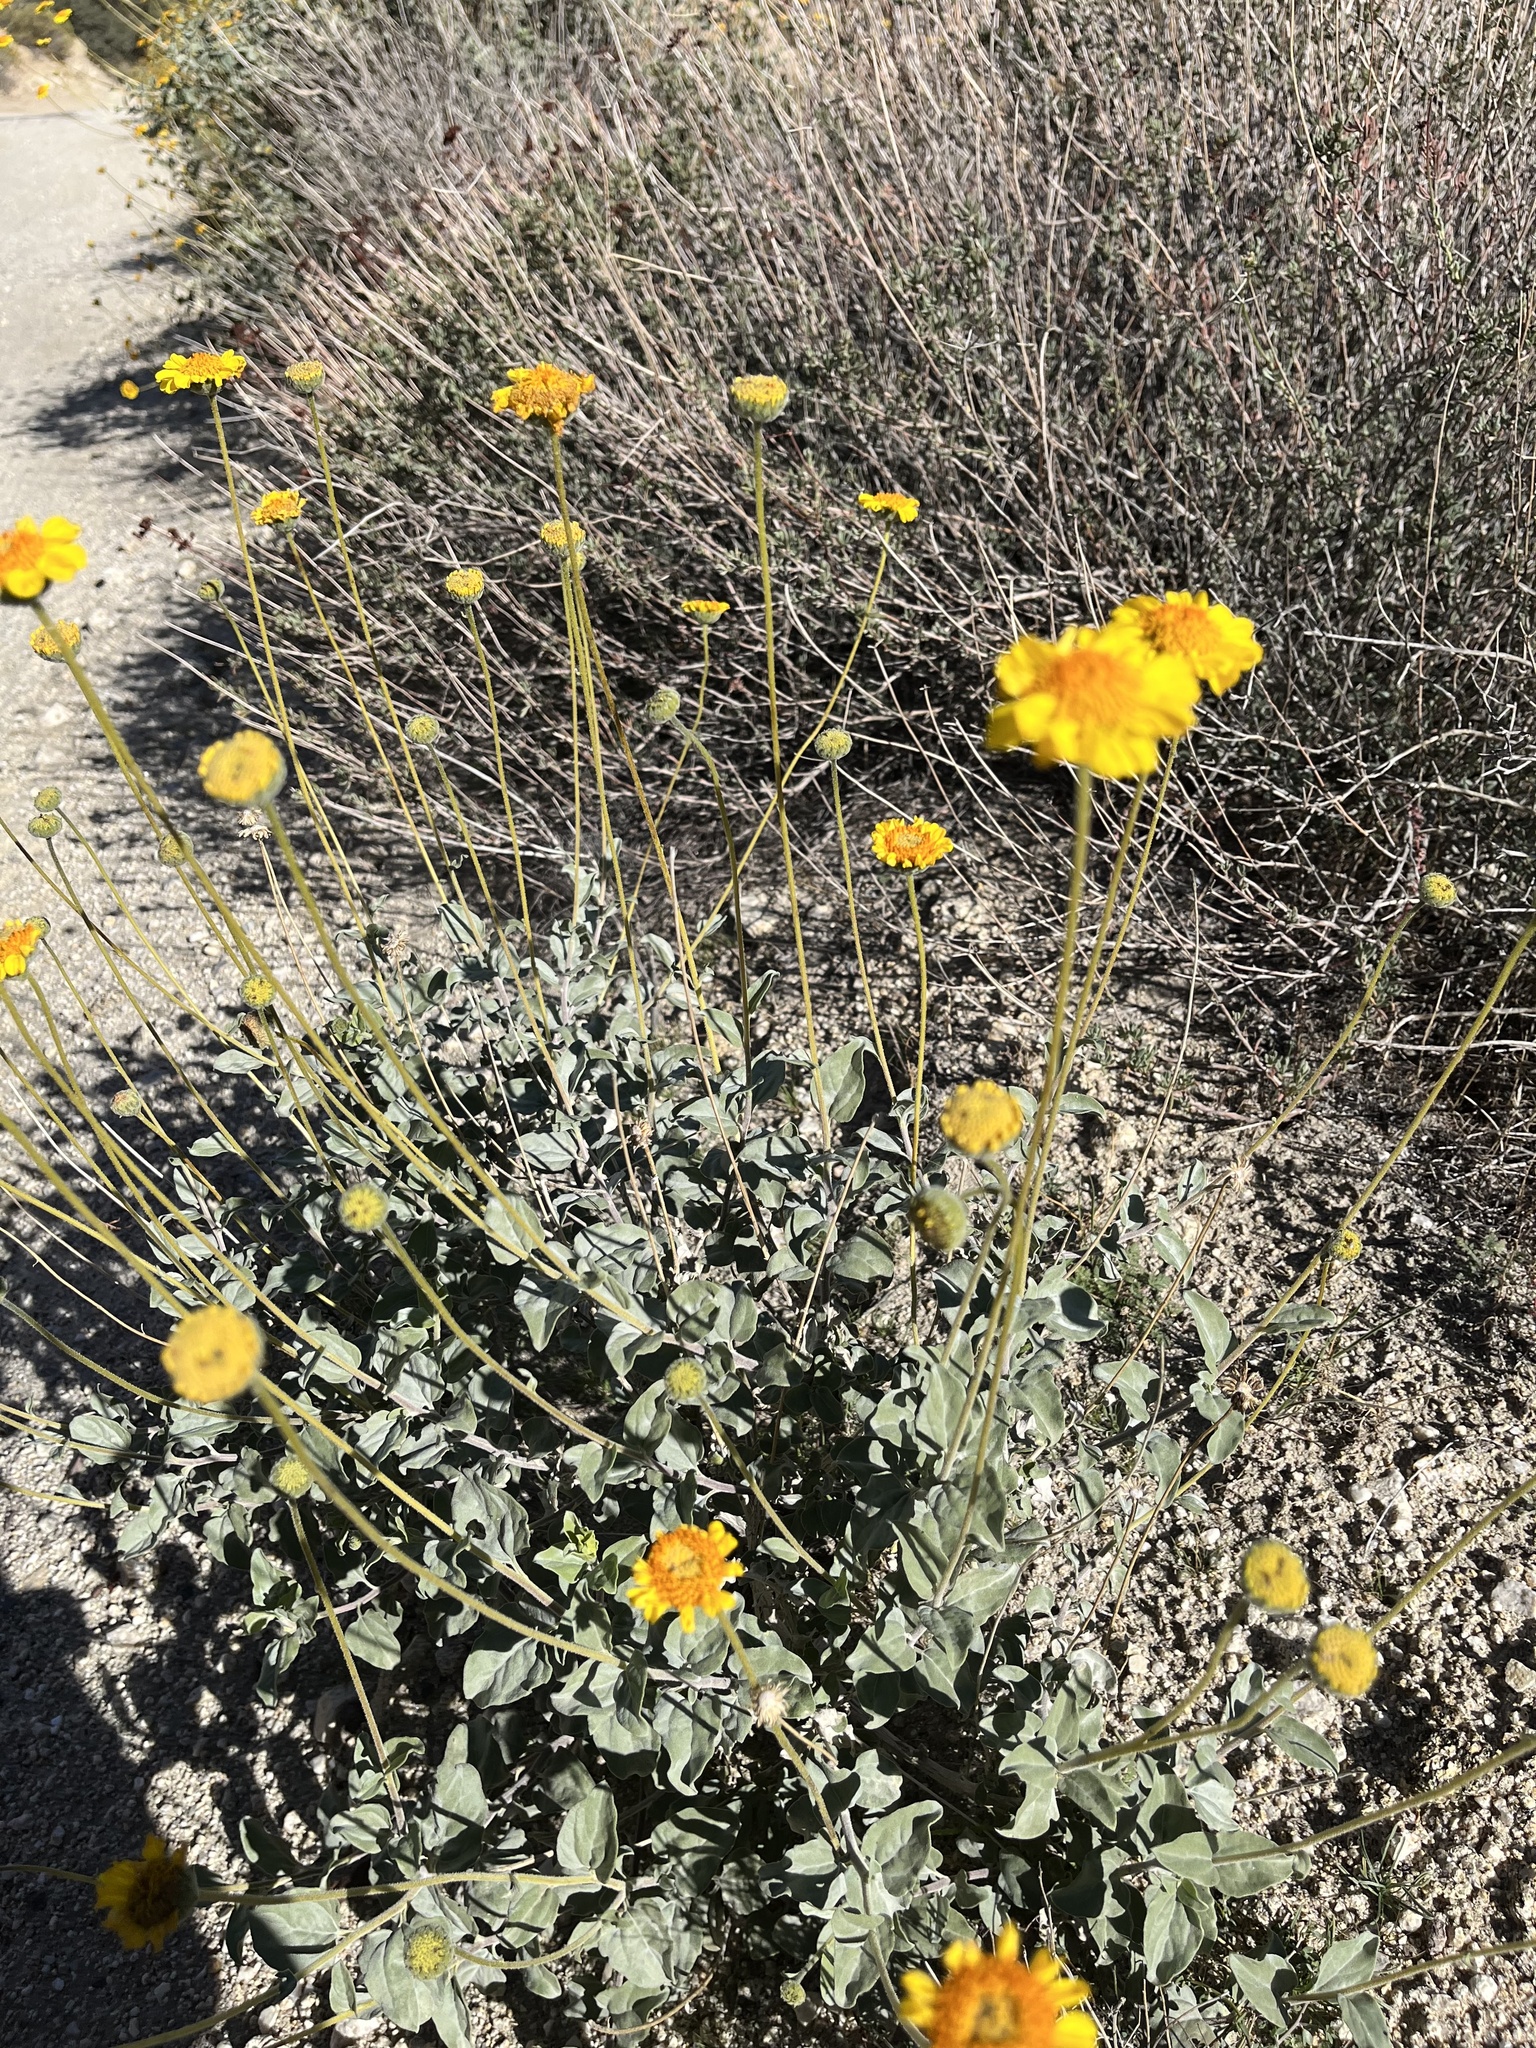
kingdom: Plantae
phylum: Tracheophyta
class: Magnoliopsida
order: Asterales
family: Asteraceae
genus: Encelia
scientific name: Encelia actoni
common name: Acton encelia
